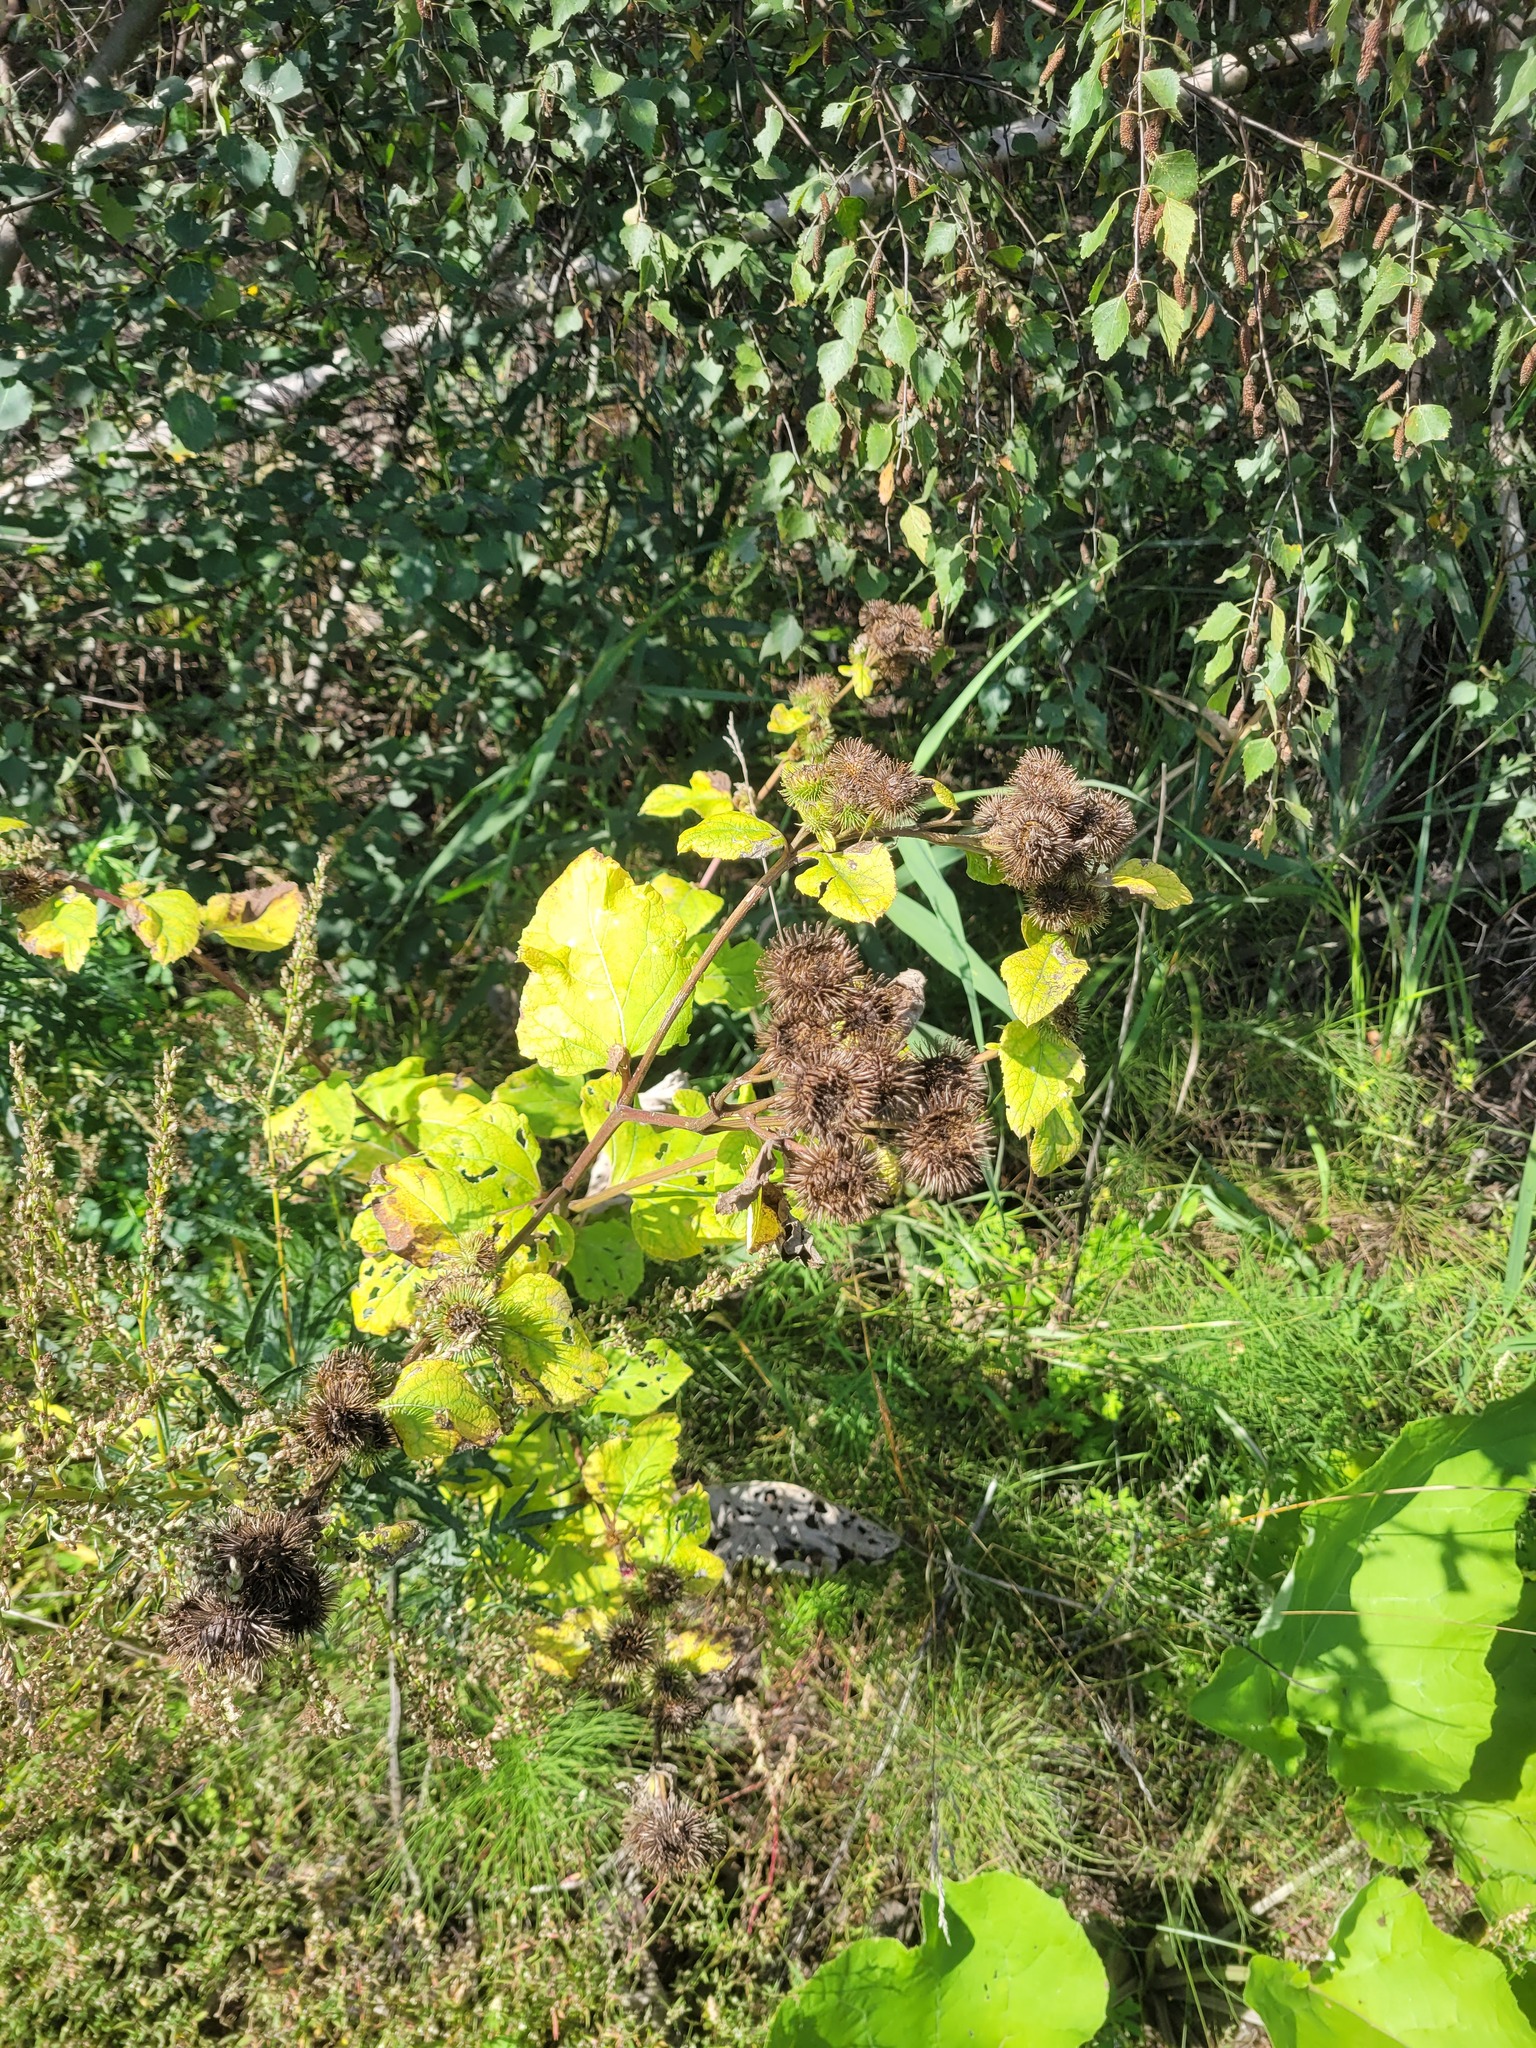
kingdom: Plantae
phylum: Tracheophyta
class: Magnoliopsida
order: Asterales
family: Asteraceae
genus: Arctium
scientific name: Arctium lappa
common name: Greater burdock
